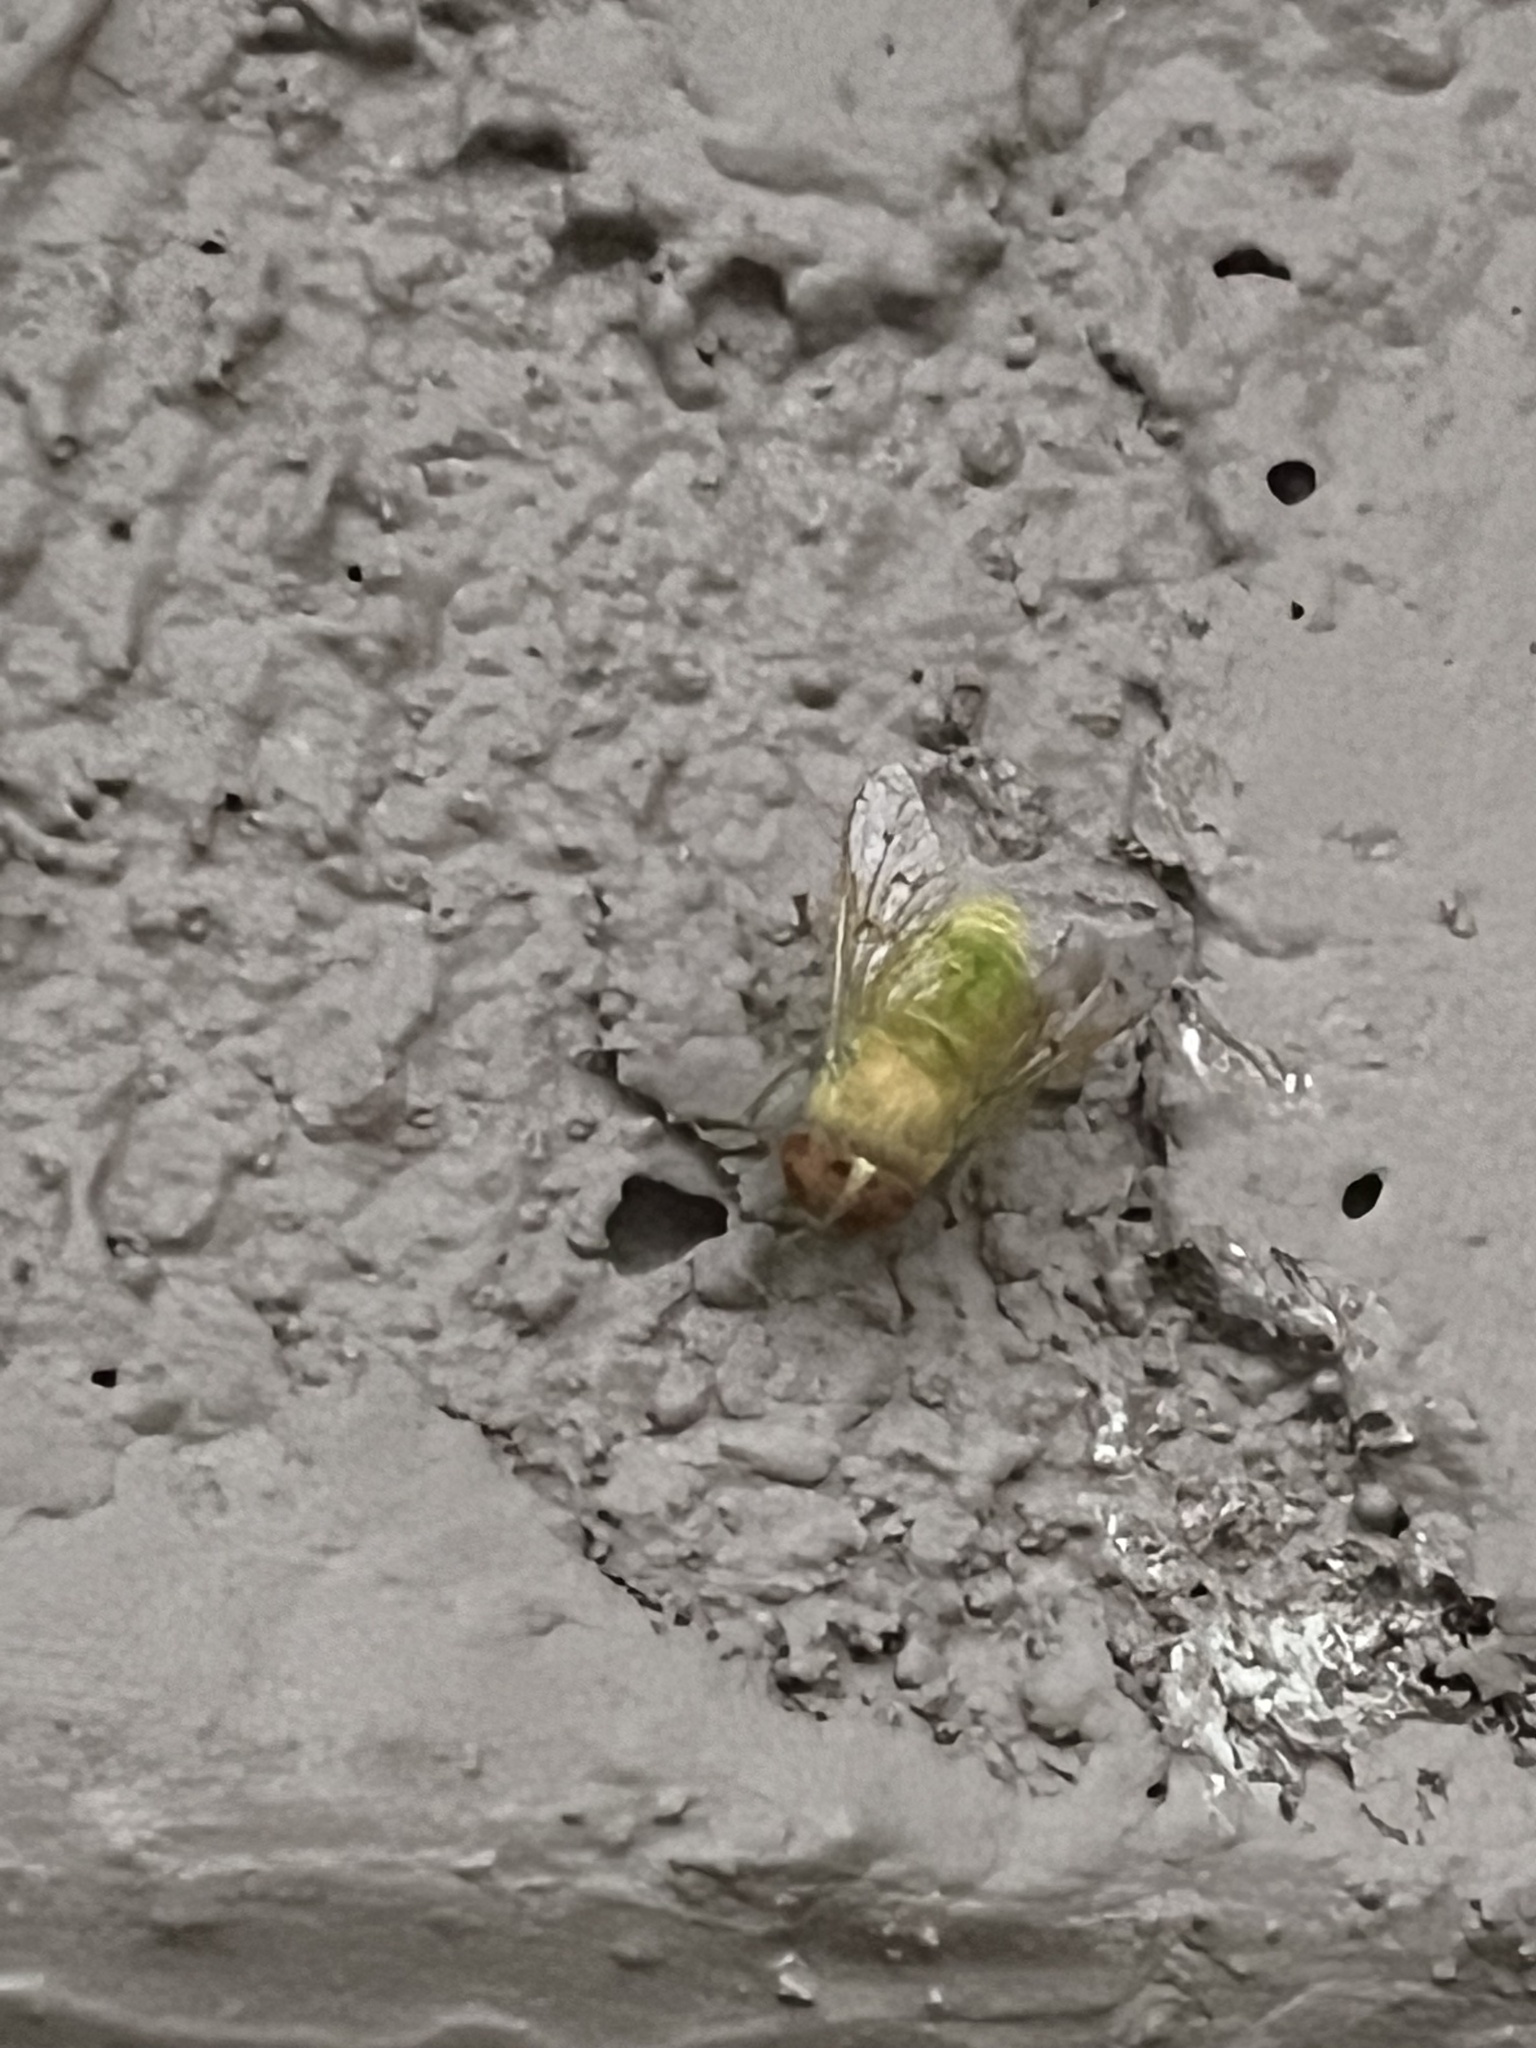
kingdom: Animalia
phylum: Arthropoda
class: Insecta
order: Diptera
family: Tabanidae
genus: Chlorotabanus
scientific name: Chlorotabanus crepuscularis
